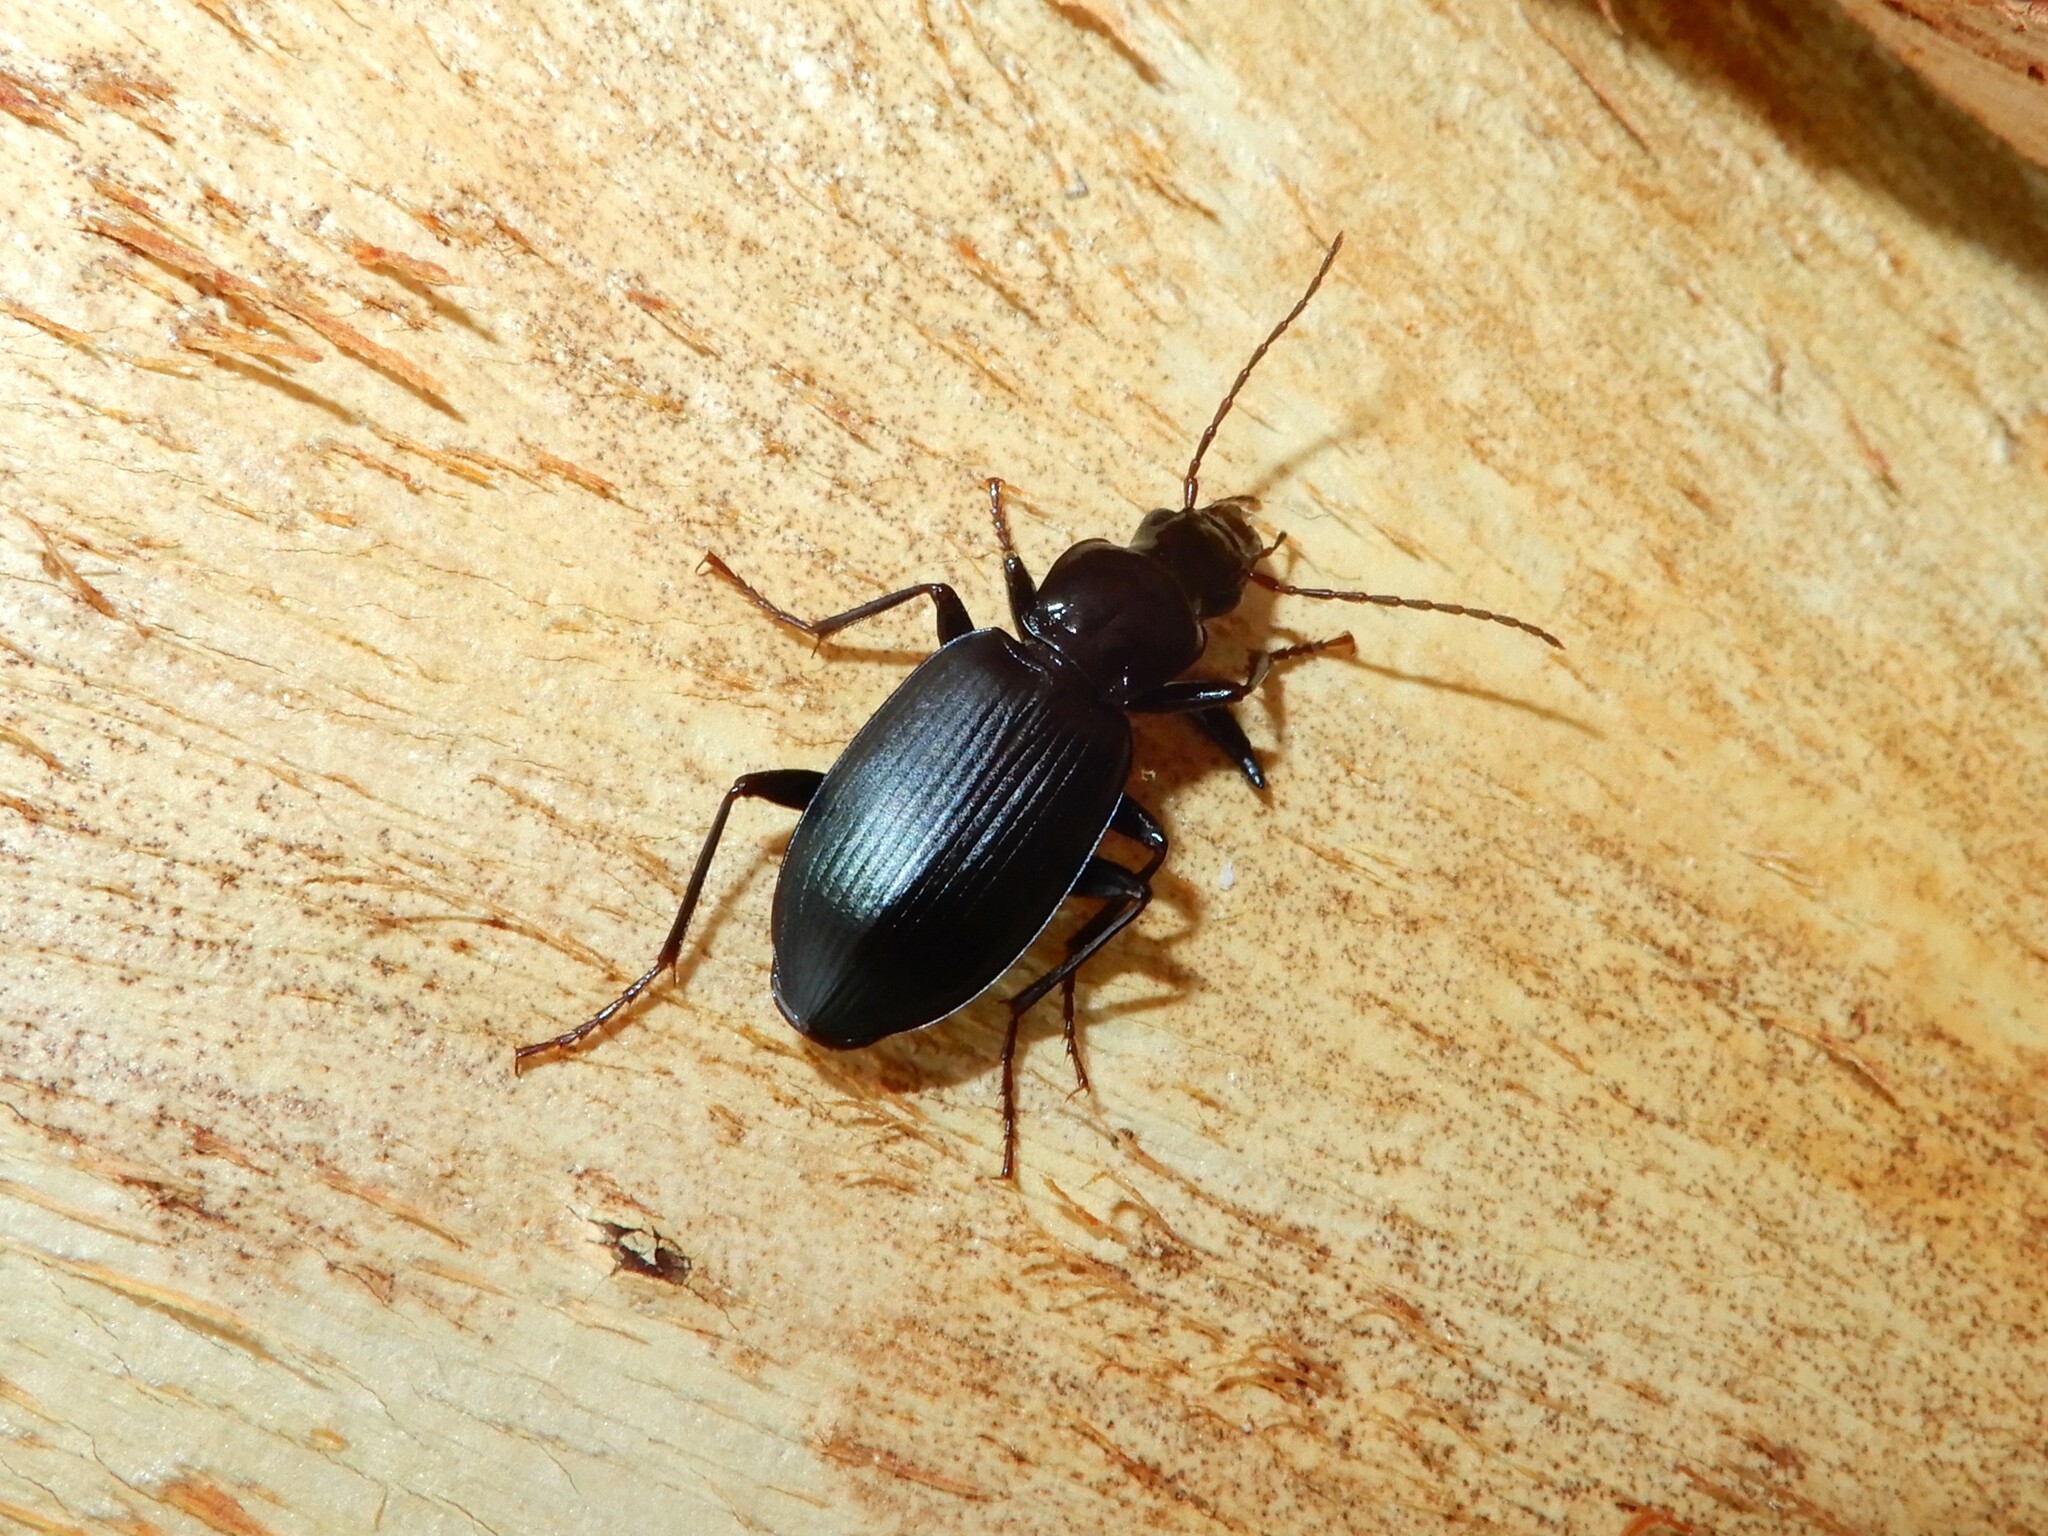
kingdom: Animalia
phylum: Arthropoda
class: Insecta
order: Coleoptera
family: Carabidae
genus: Laemostenus
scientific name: Laemostenus complanatus
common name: Cosmopolitan ground beetle
